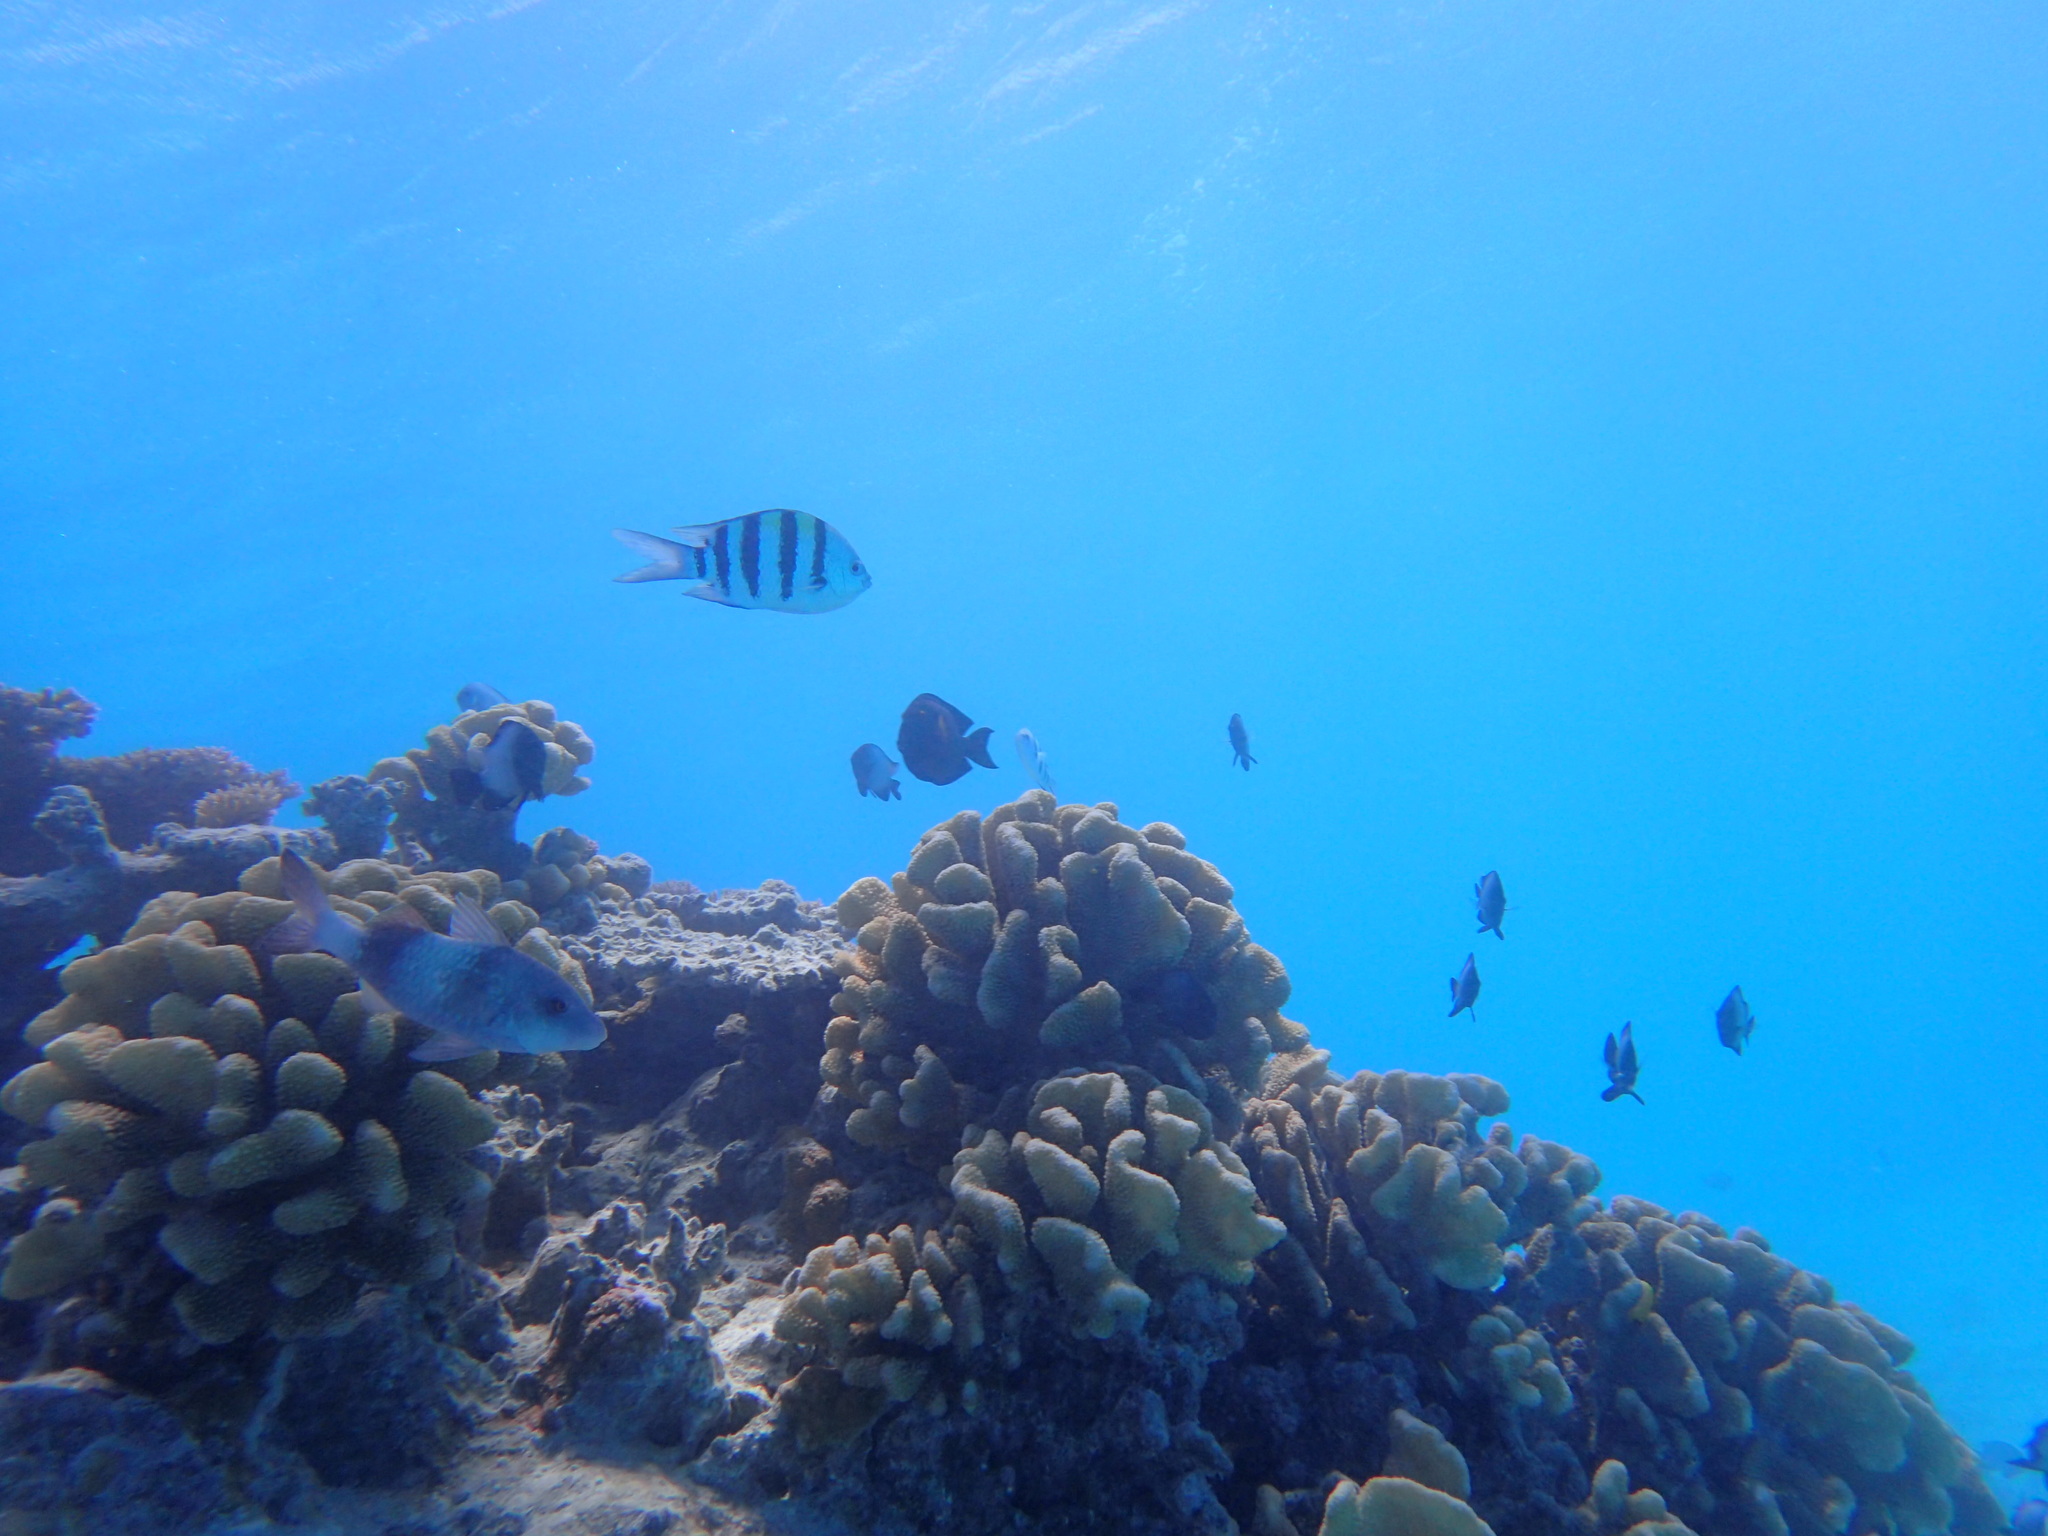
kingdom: Animalia
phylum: Chordata
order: Perciformes
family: Pomacentridae
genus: Abudefduf
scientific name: Abudefduf vaigiensis
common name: Indo-pacific sergeant
